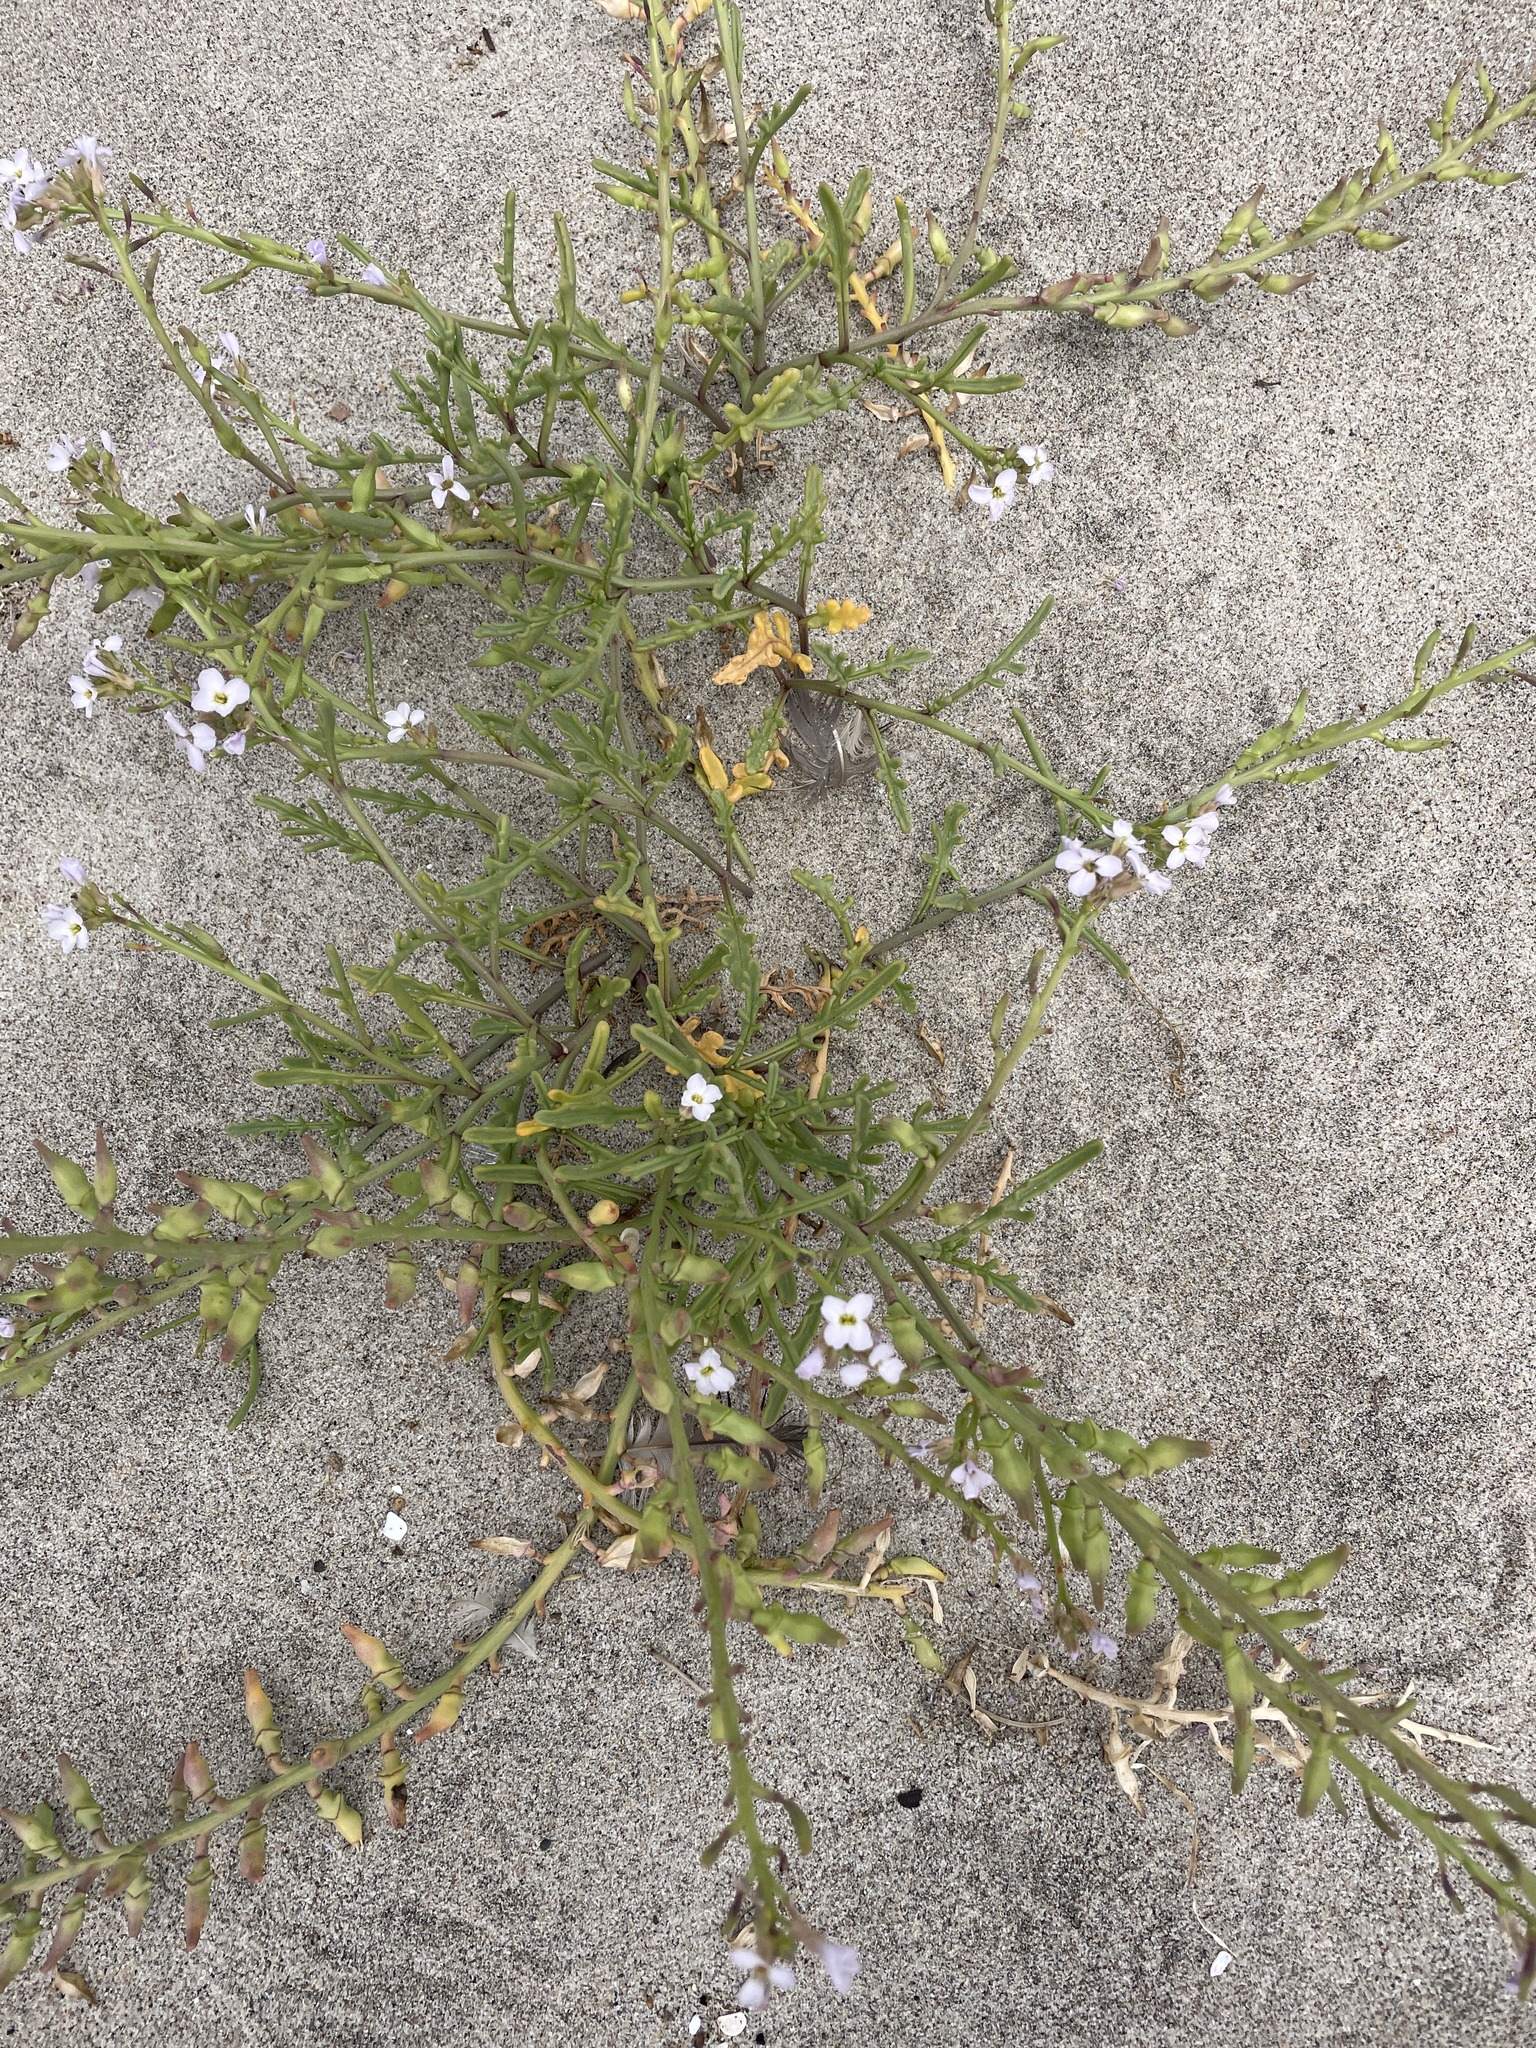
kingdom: Plantae
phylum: Tracheophyta
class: Magnoliopsida
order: Brassicales
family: Brassicaceae
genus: Cakile
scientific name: Cakile maritima
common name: Sea rocket
